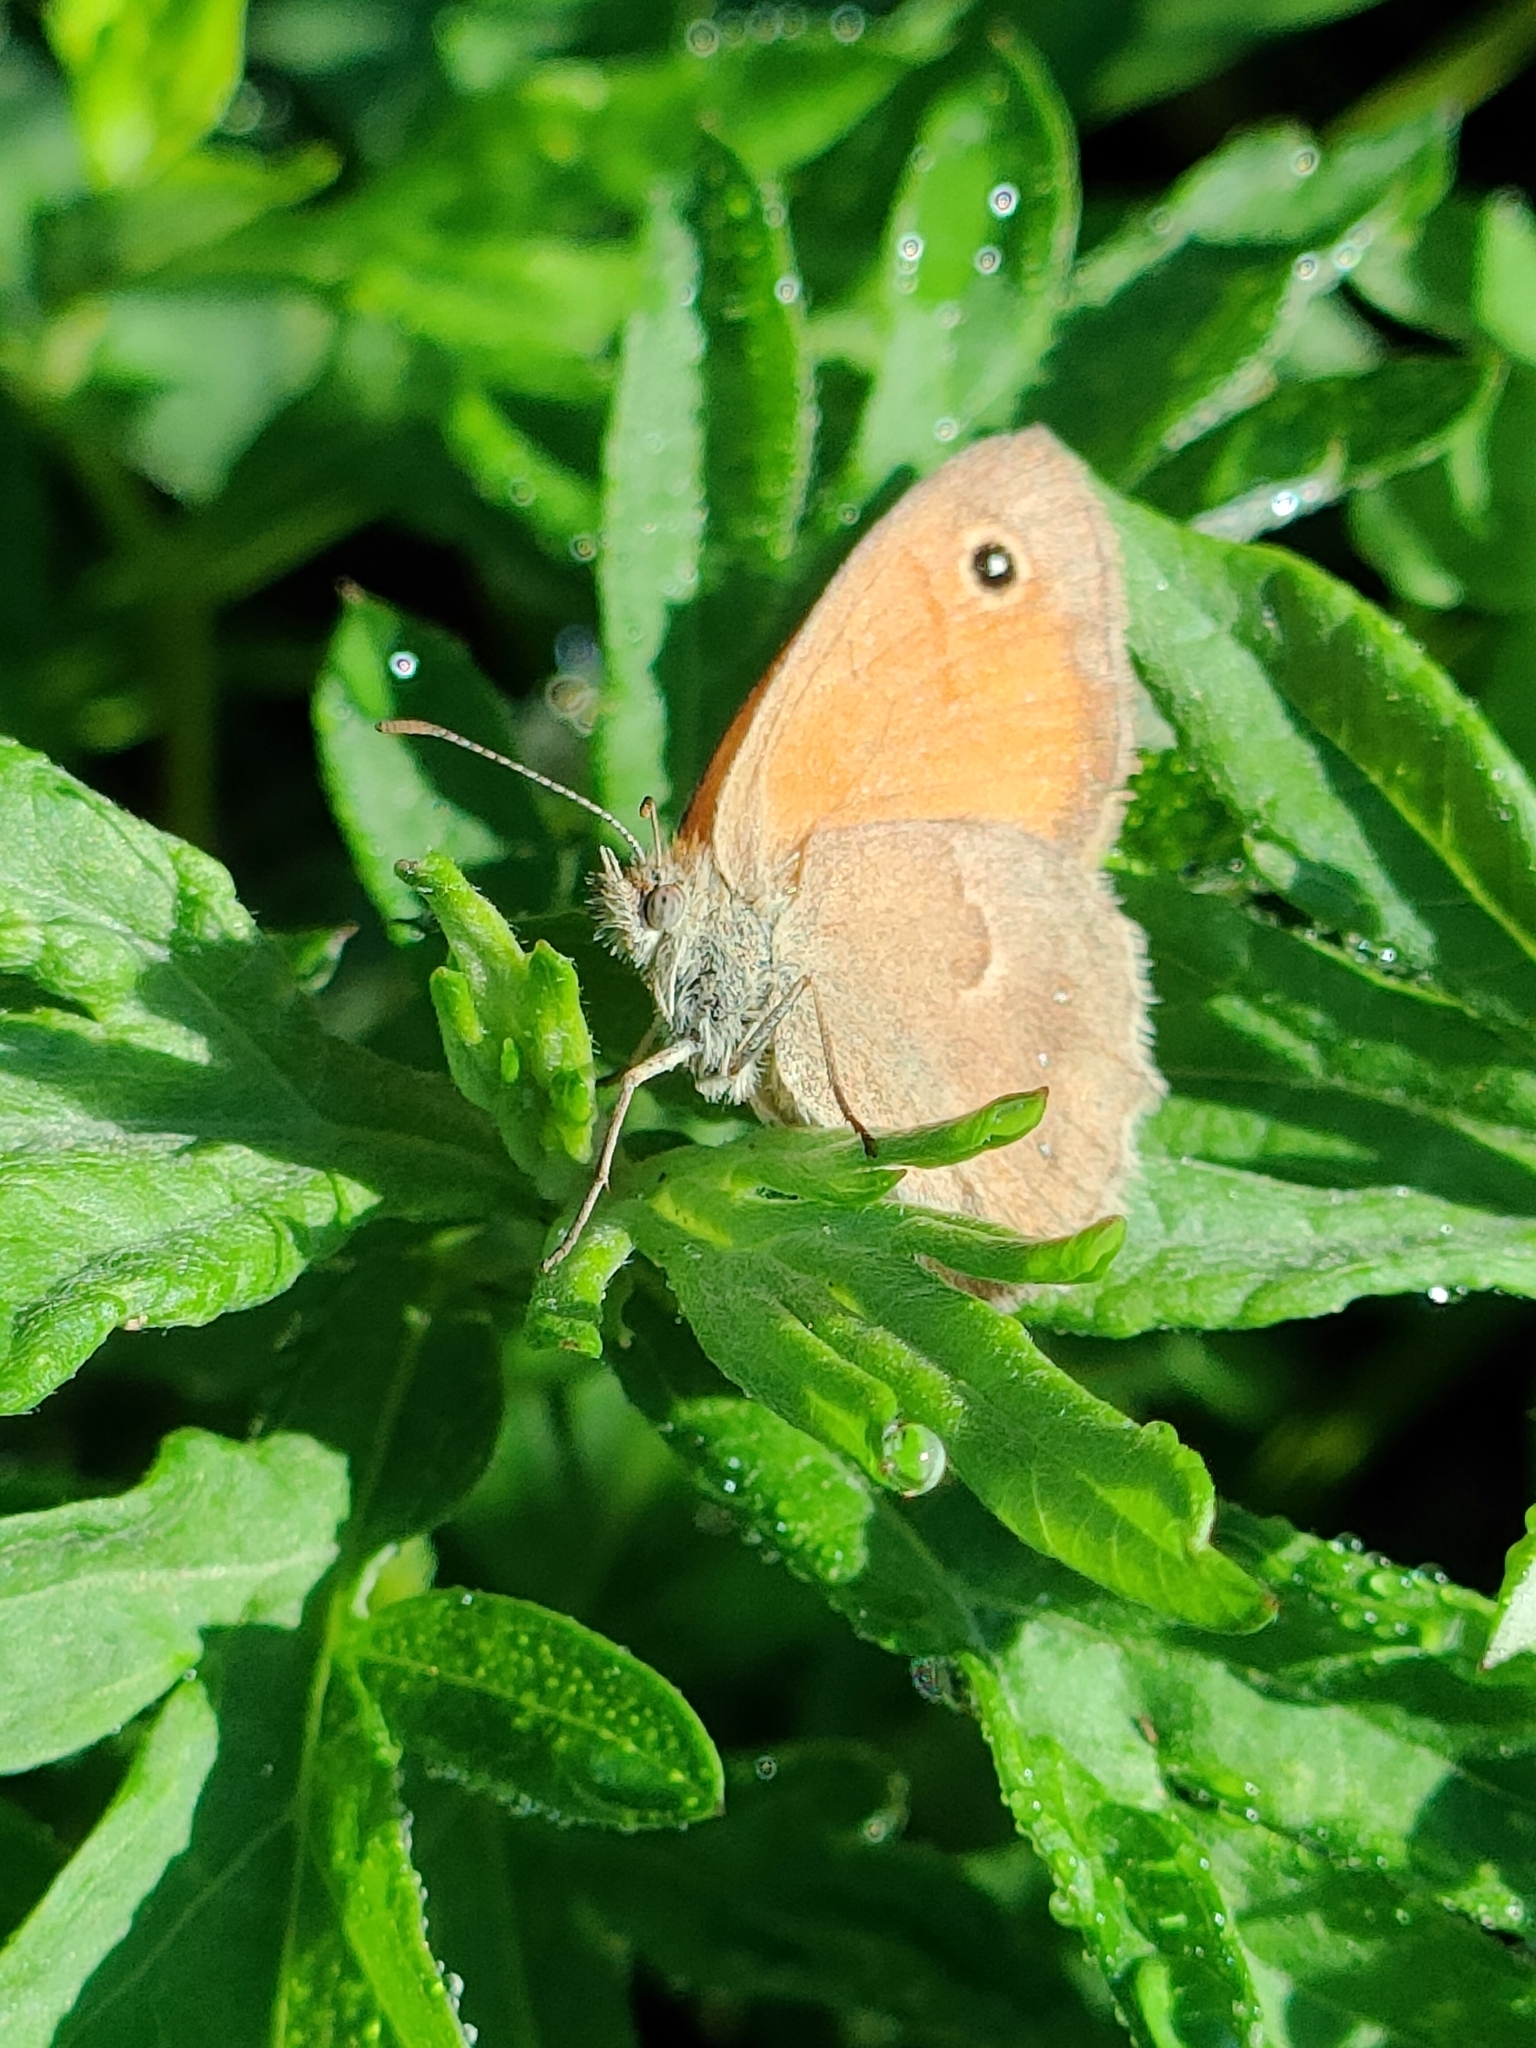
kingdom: Animalia
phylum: Arthropoda
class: Insecta
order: Lepidoptera
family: Nymphalidae
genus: Coenonympha
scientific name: Coenonympha pamphilus
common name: Small heath
